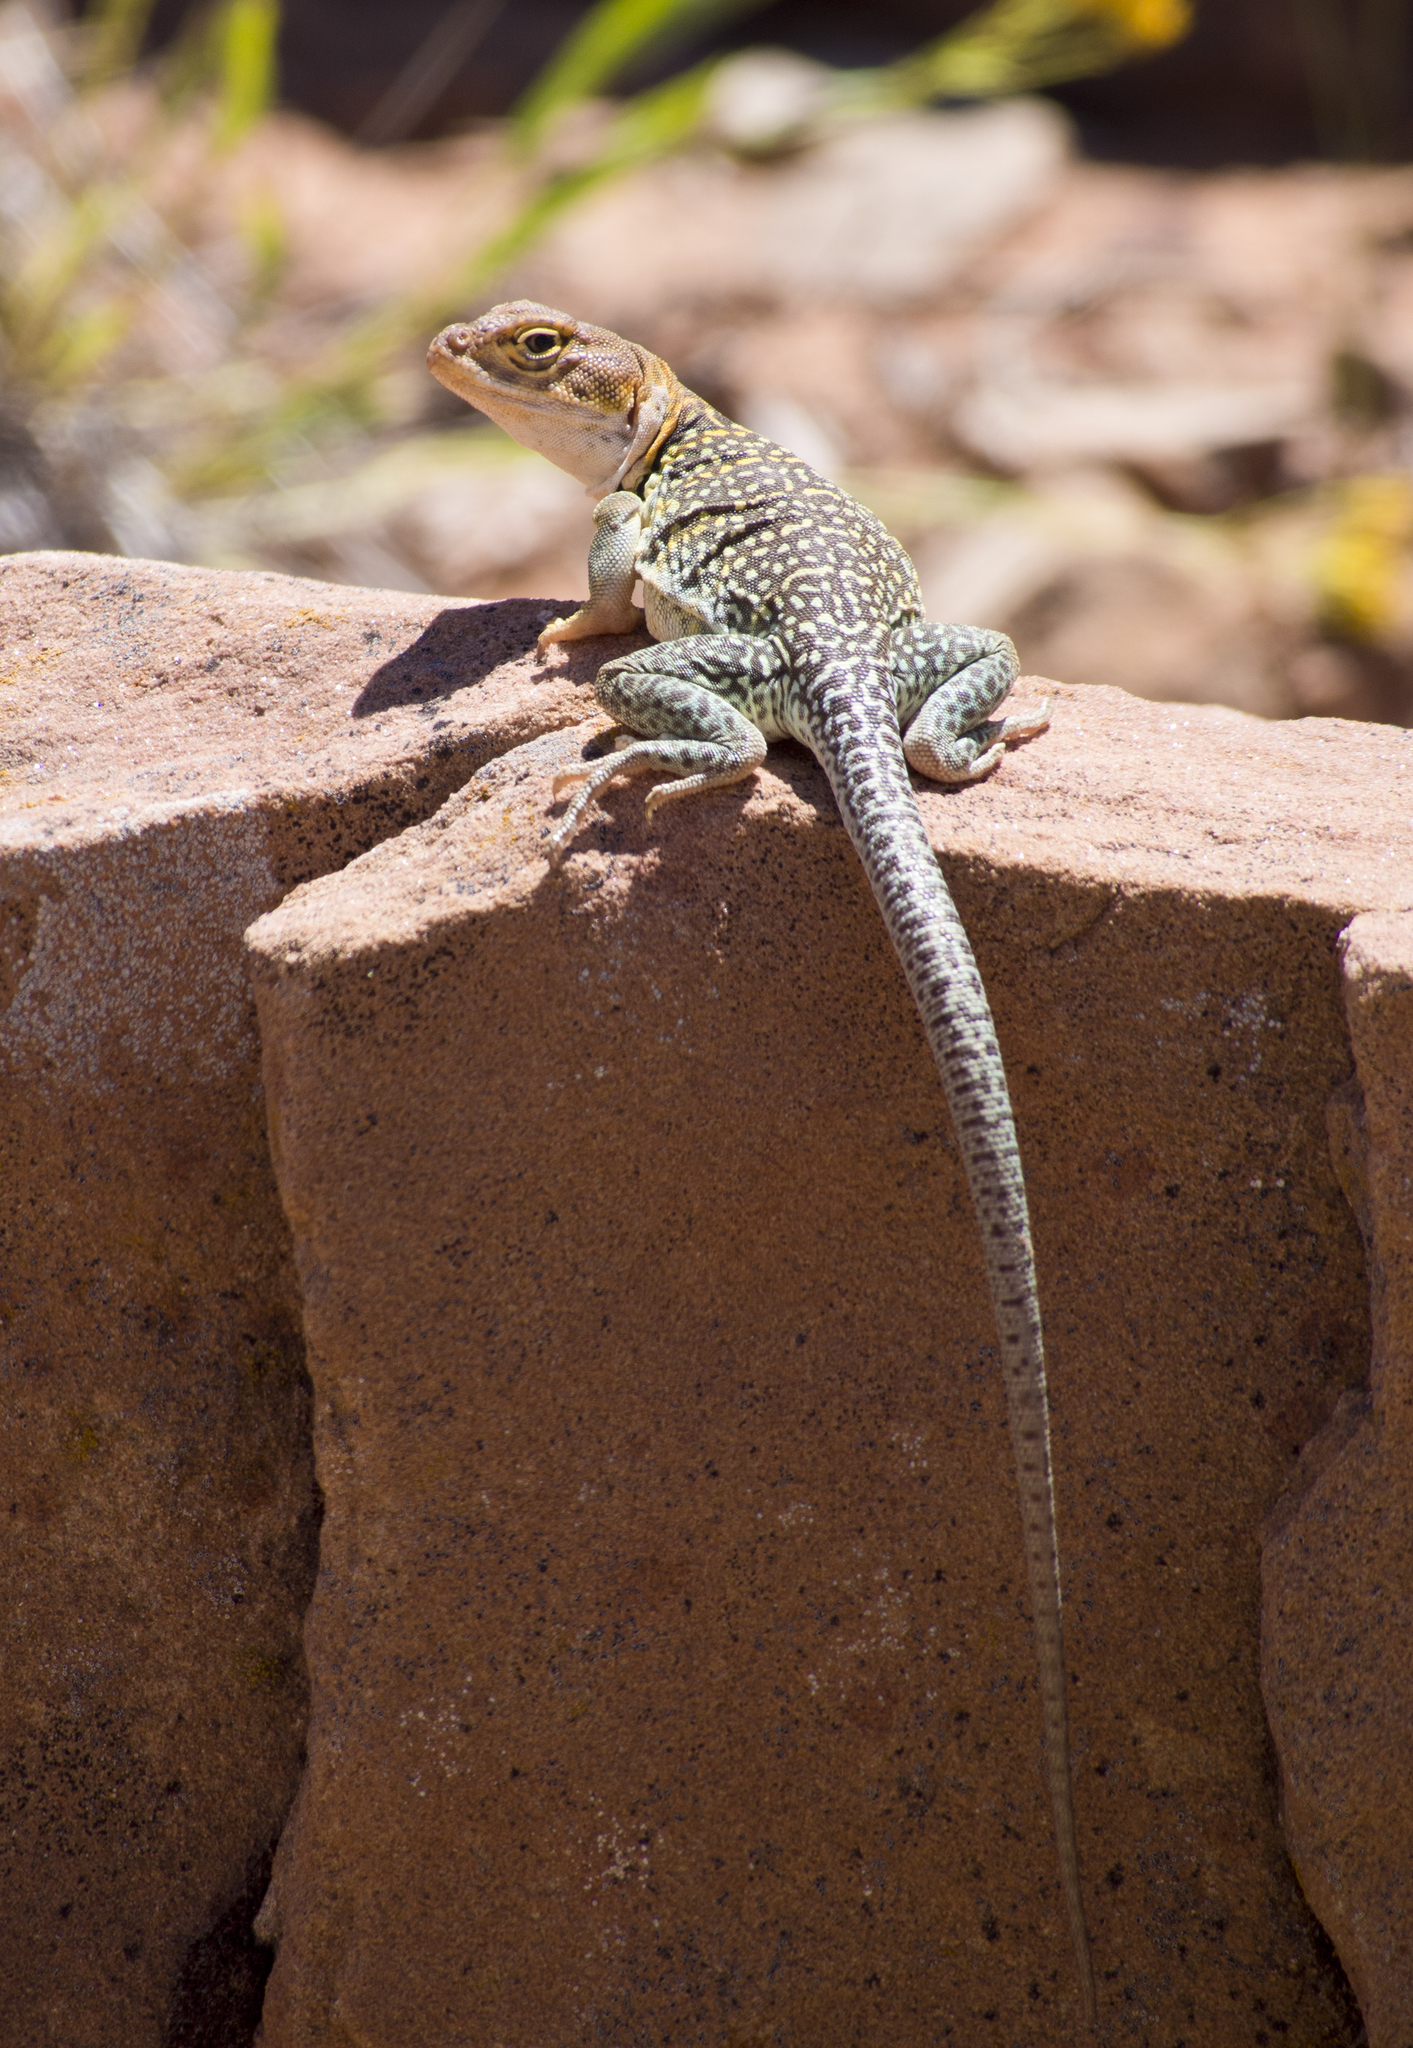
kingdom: Animalia
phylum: Chordata
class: Squamata
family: Crotaphytidae
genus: Crotaphytus
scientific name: Crotaphytus collaris
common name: Collared lizard
